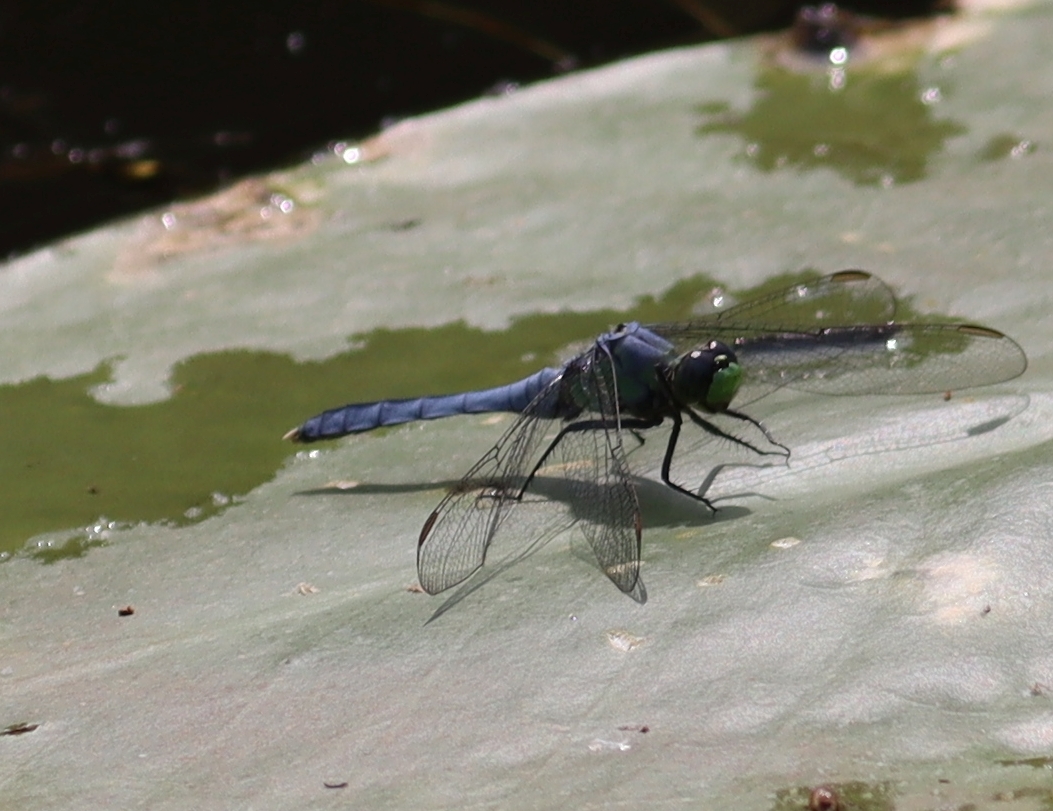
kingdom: Animalia
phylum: Arthropoda
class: Insecta
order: Odonata
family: Libellulidae
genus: Erythemis
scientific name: Erythemis simplicicollis
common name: Eastern pondhawk
